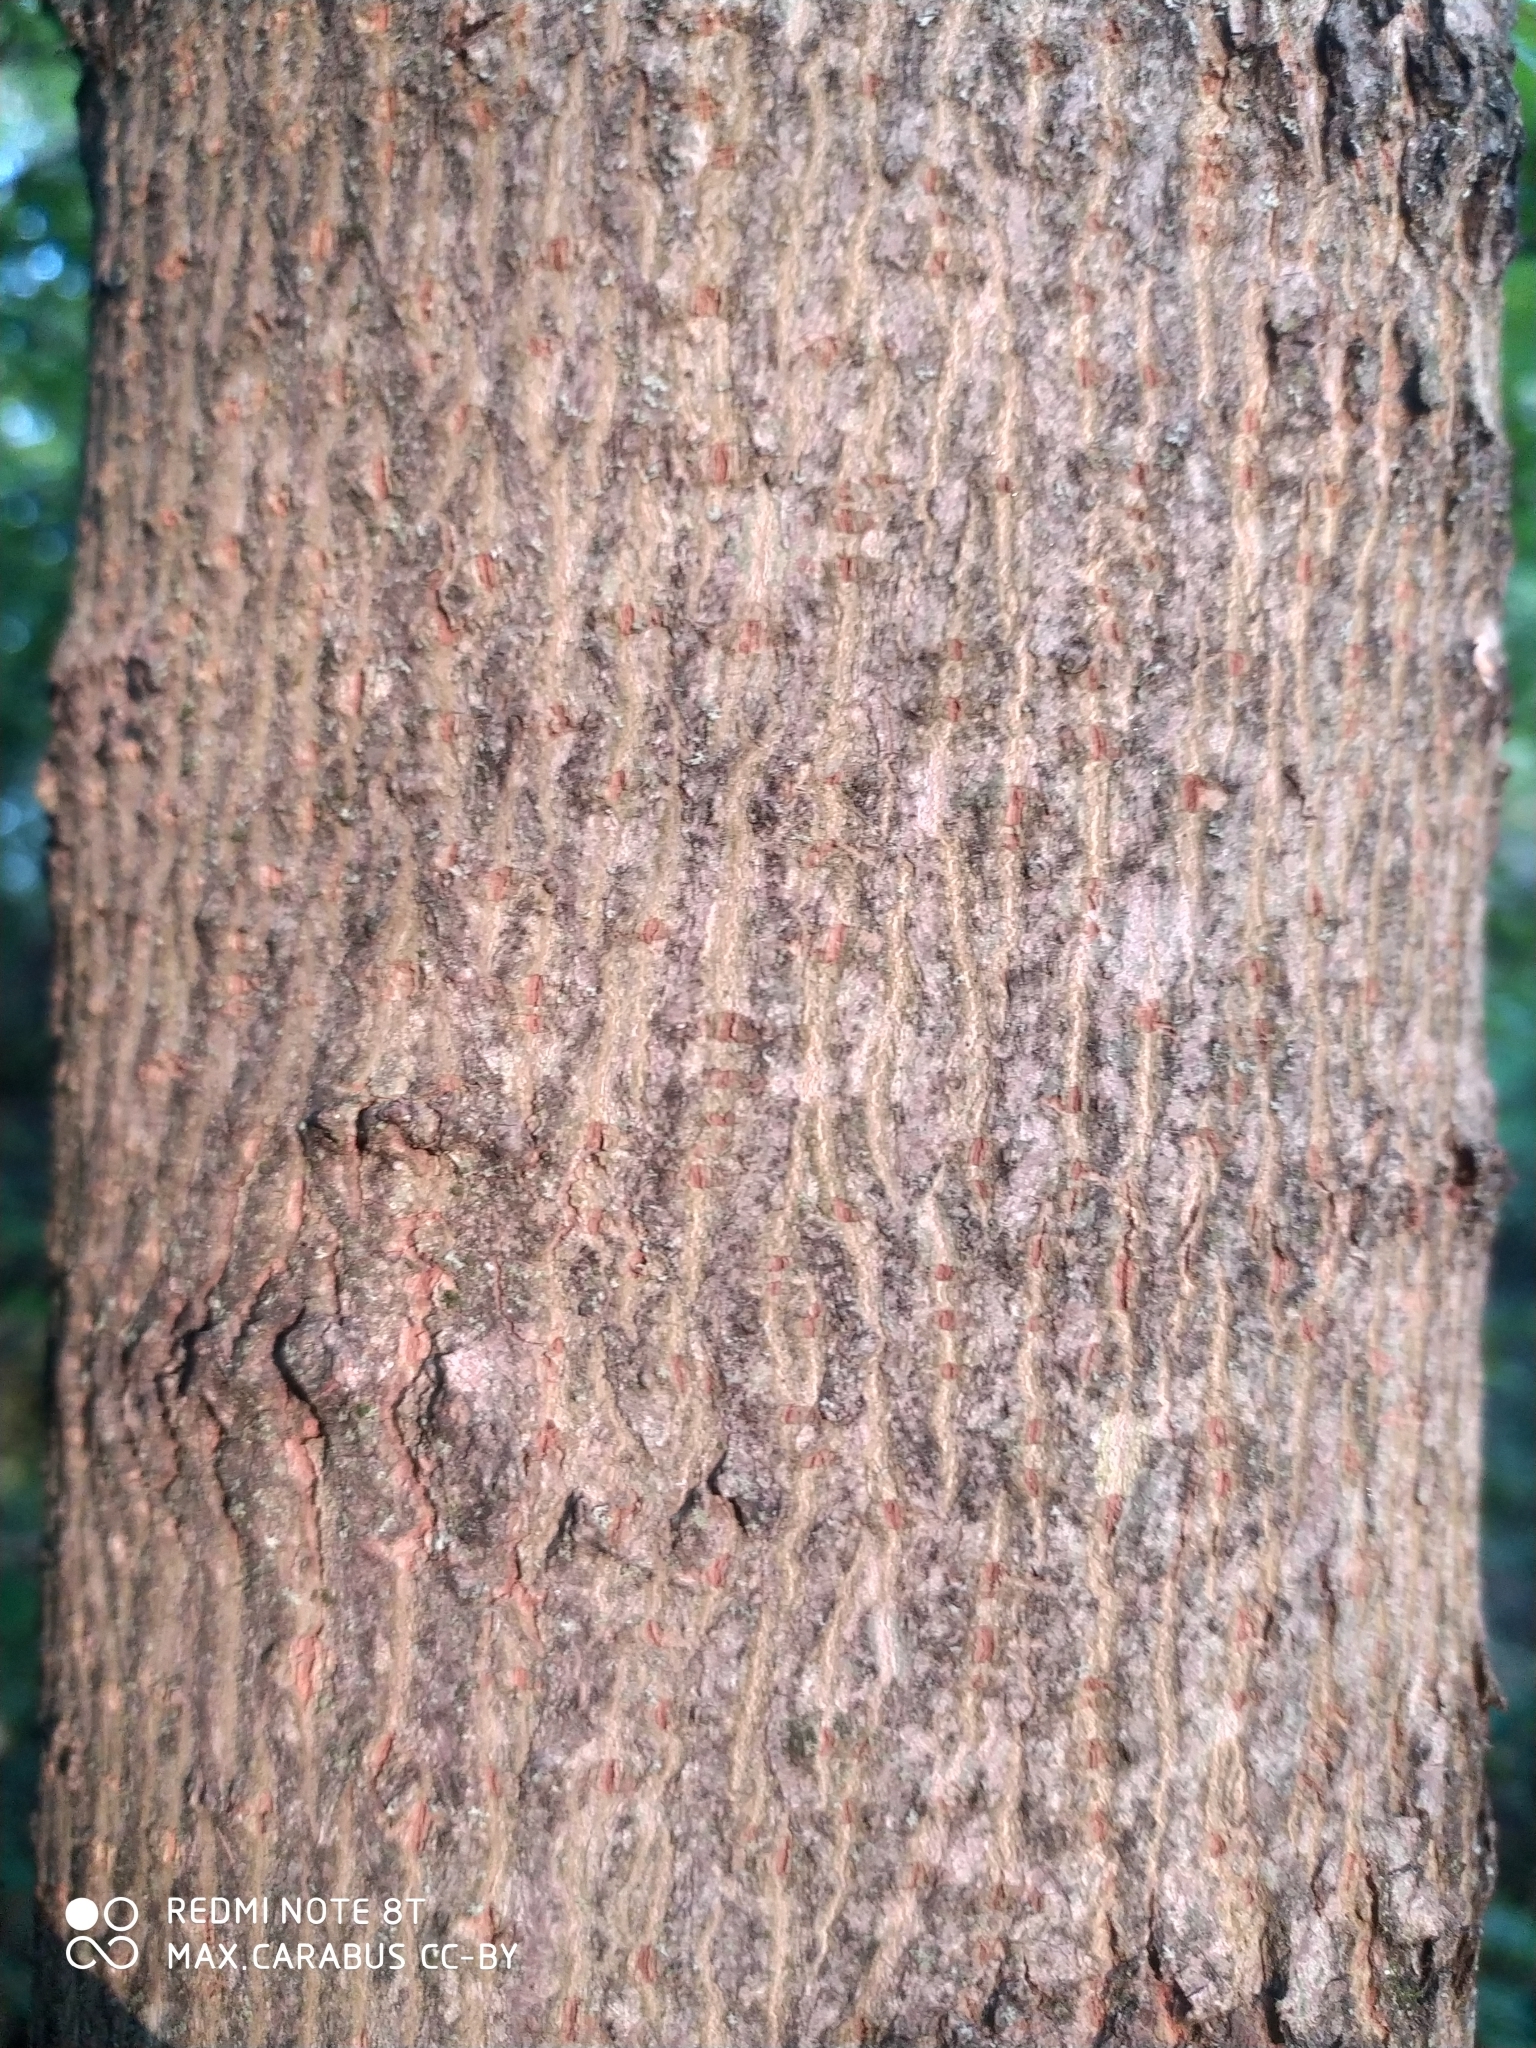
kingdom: Plantae
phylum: Tracheophyta
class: Magnoliopsida
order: Sapindales
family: Sapindaceae
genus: Acer
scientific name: Acer platanoides
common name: Norway maple
